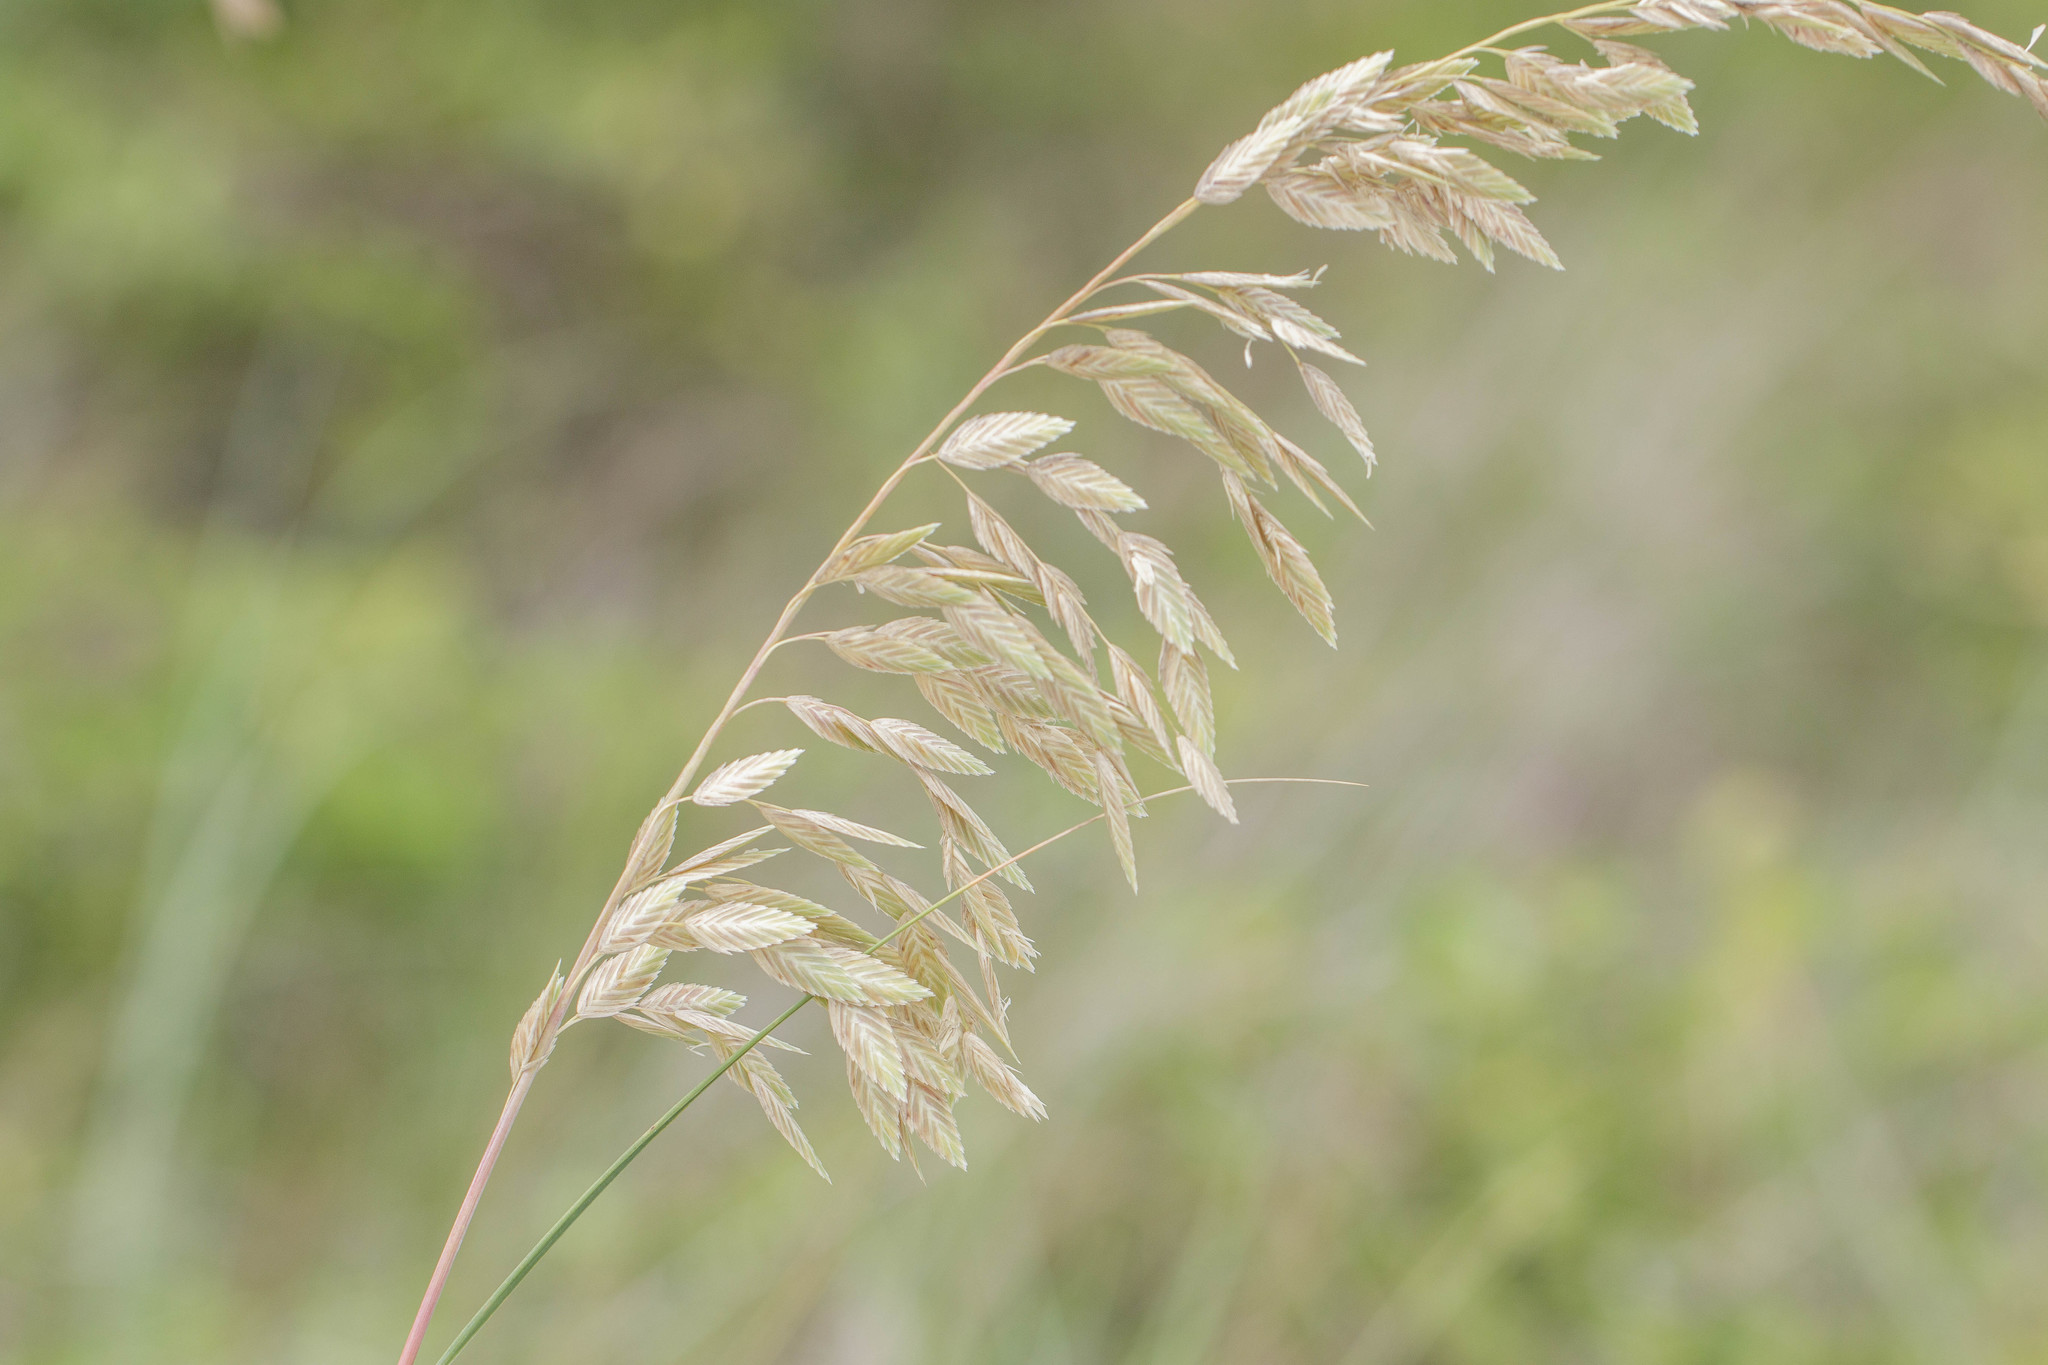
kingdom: Plantae
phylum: Tracheophyta
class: Liliopsida
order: Poales
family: Poaceae
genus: Uniola
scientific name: Uniola paniculata
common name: Seaside-oats
